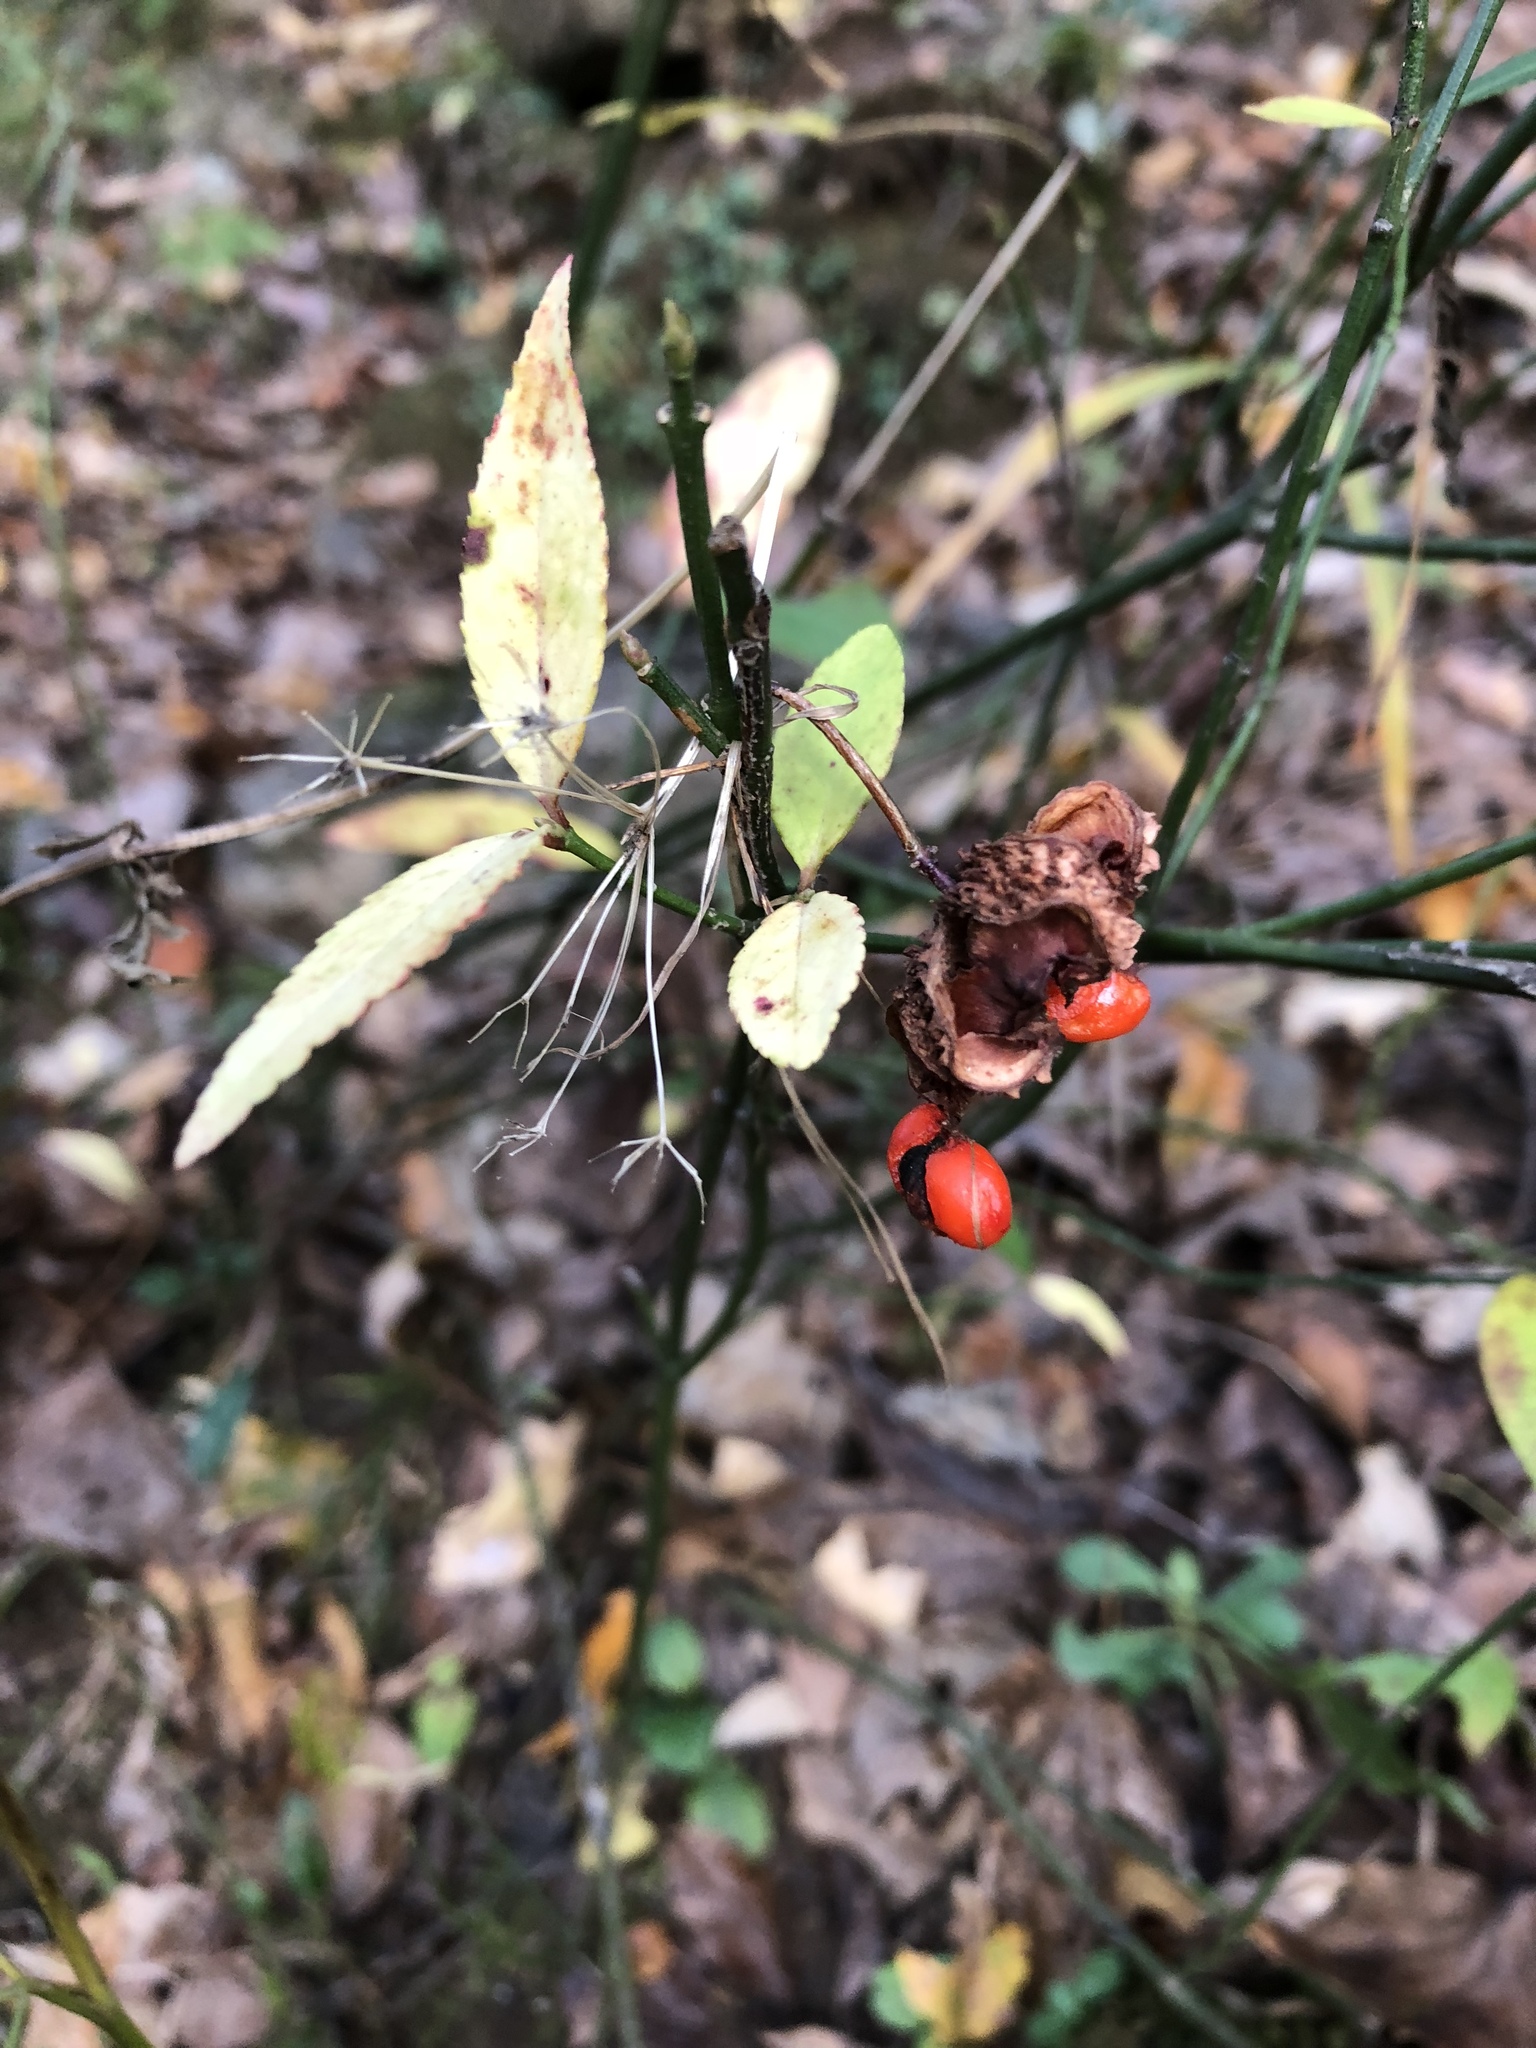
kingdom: Plantae
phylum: Tracheophyta
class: Magnoliopsida
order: Celastrales
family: Celastraceae
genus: Euonymus
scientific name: Euonymus americanus
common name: Bursting-heart
